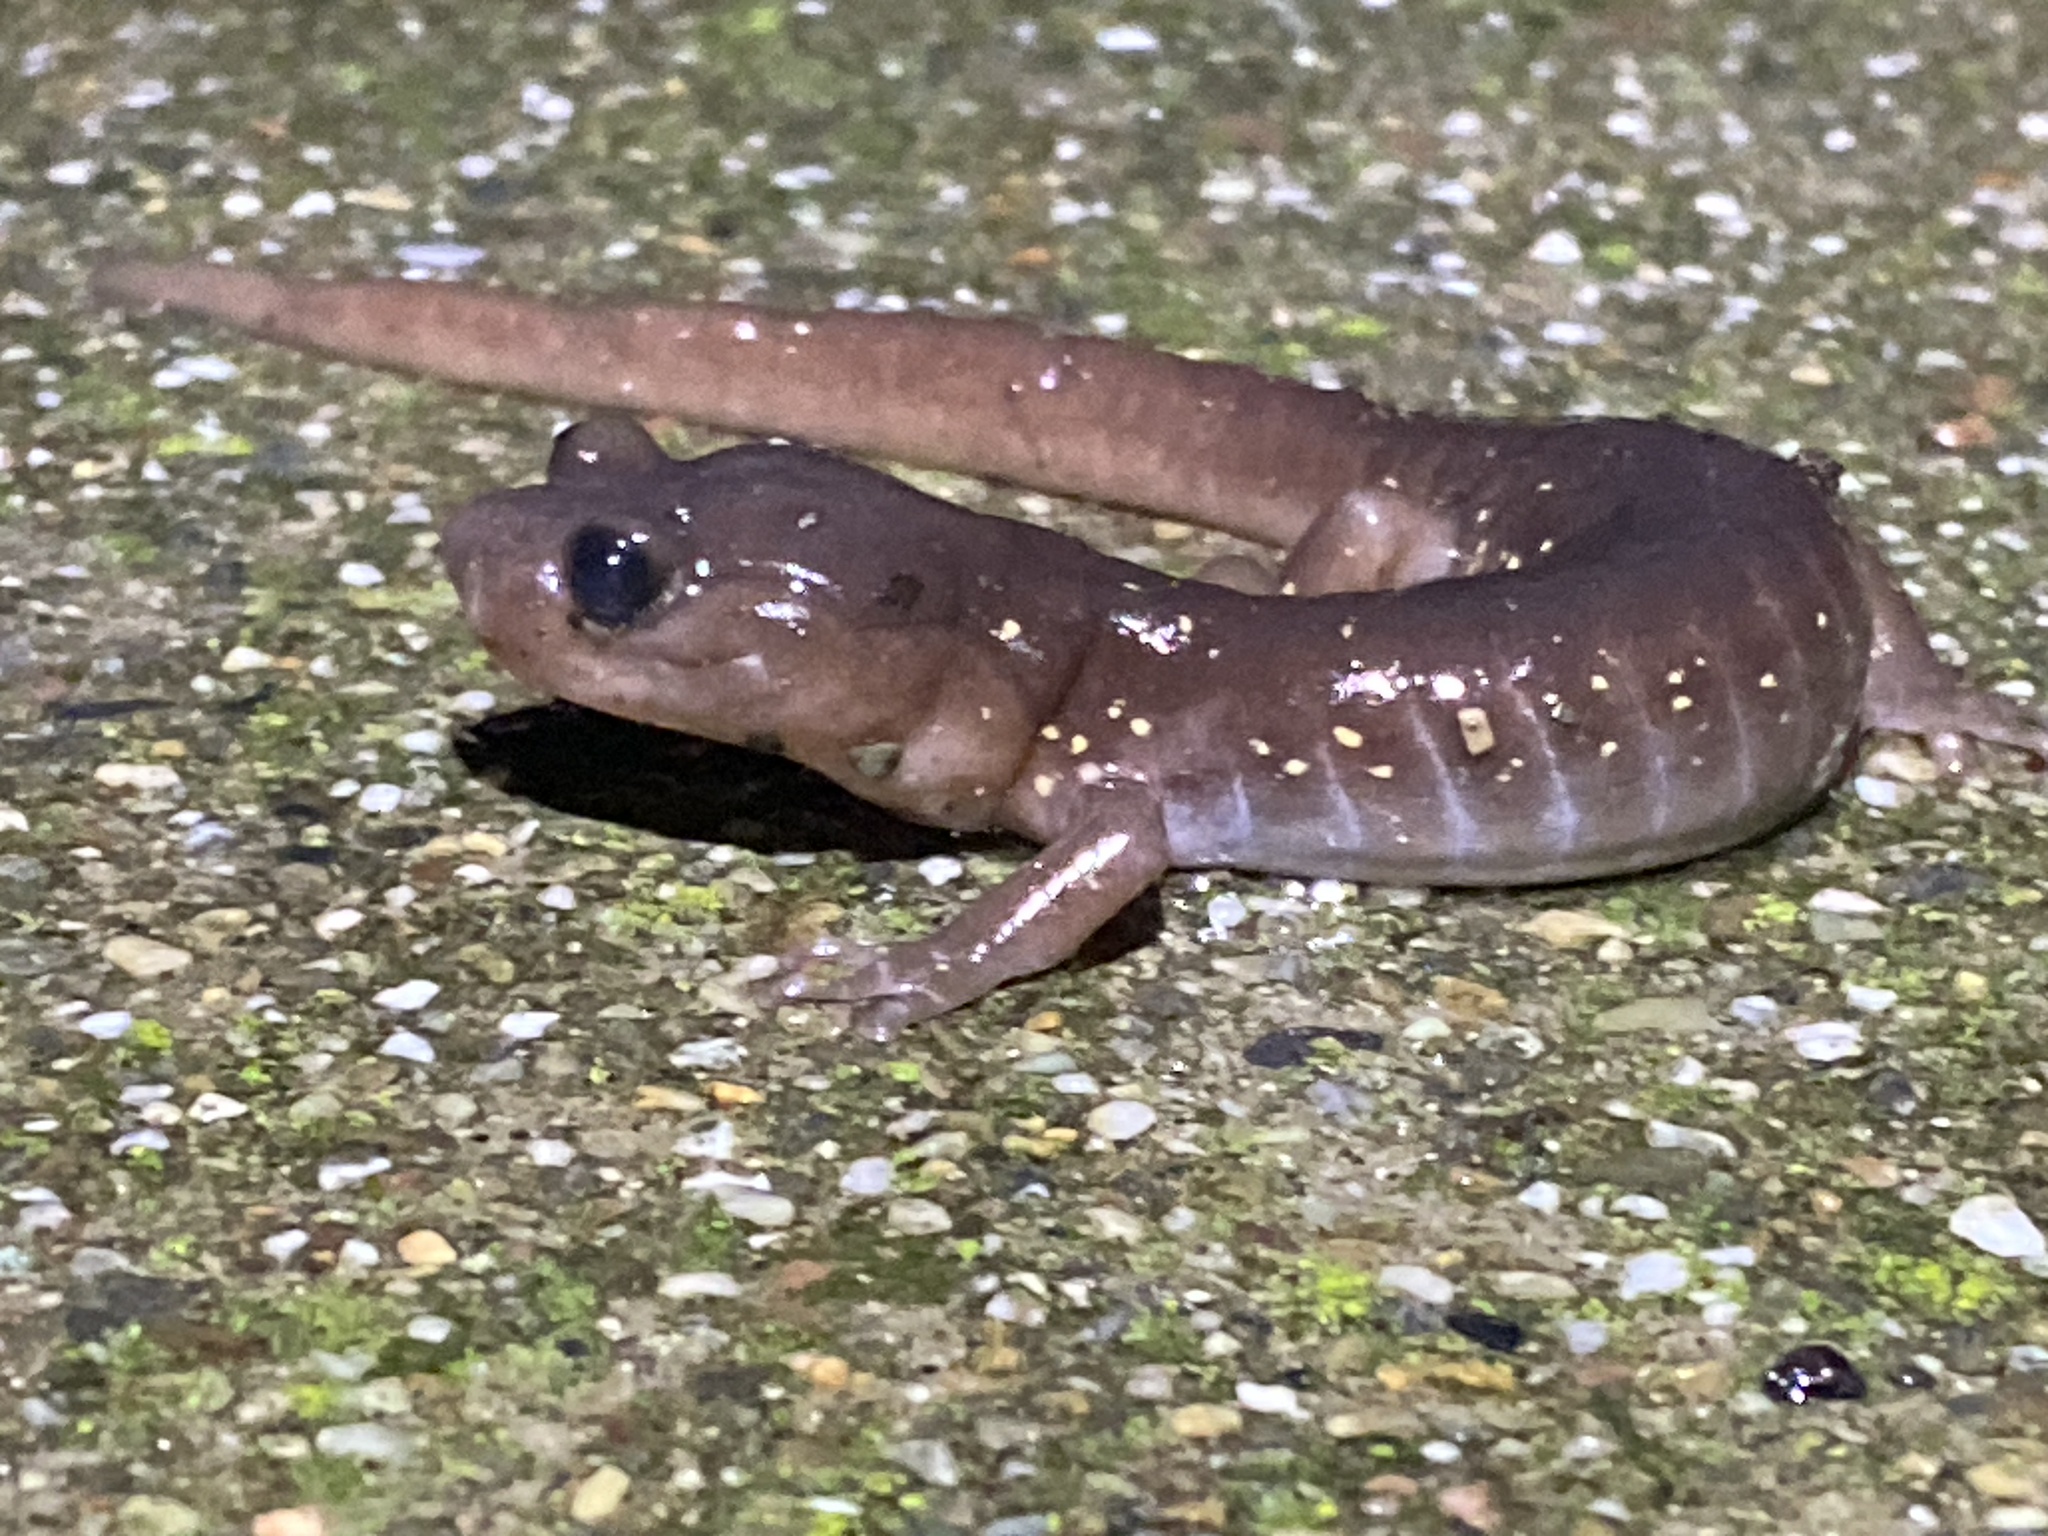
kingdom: Animalia
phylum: Chordata
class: Amphibia
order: Caudata
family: Plethodontidae
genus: Aneides
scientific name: Aneides lugubris
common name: Arboreal salamander
